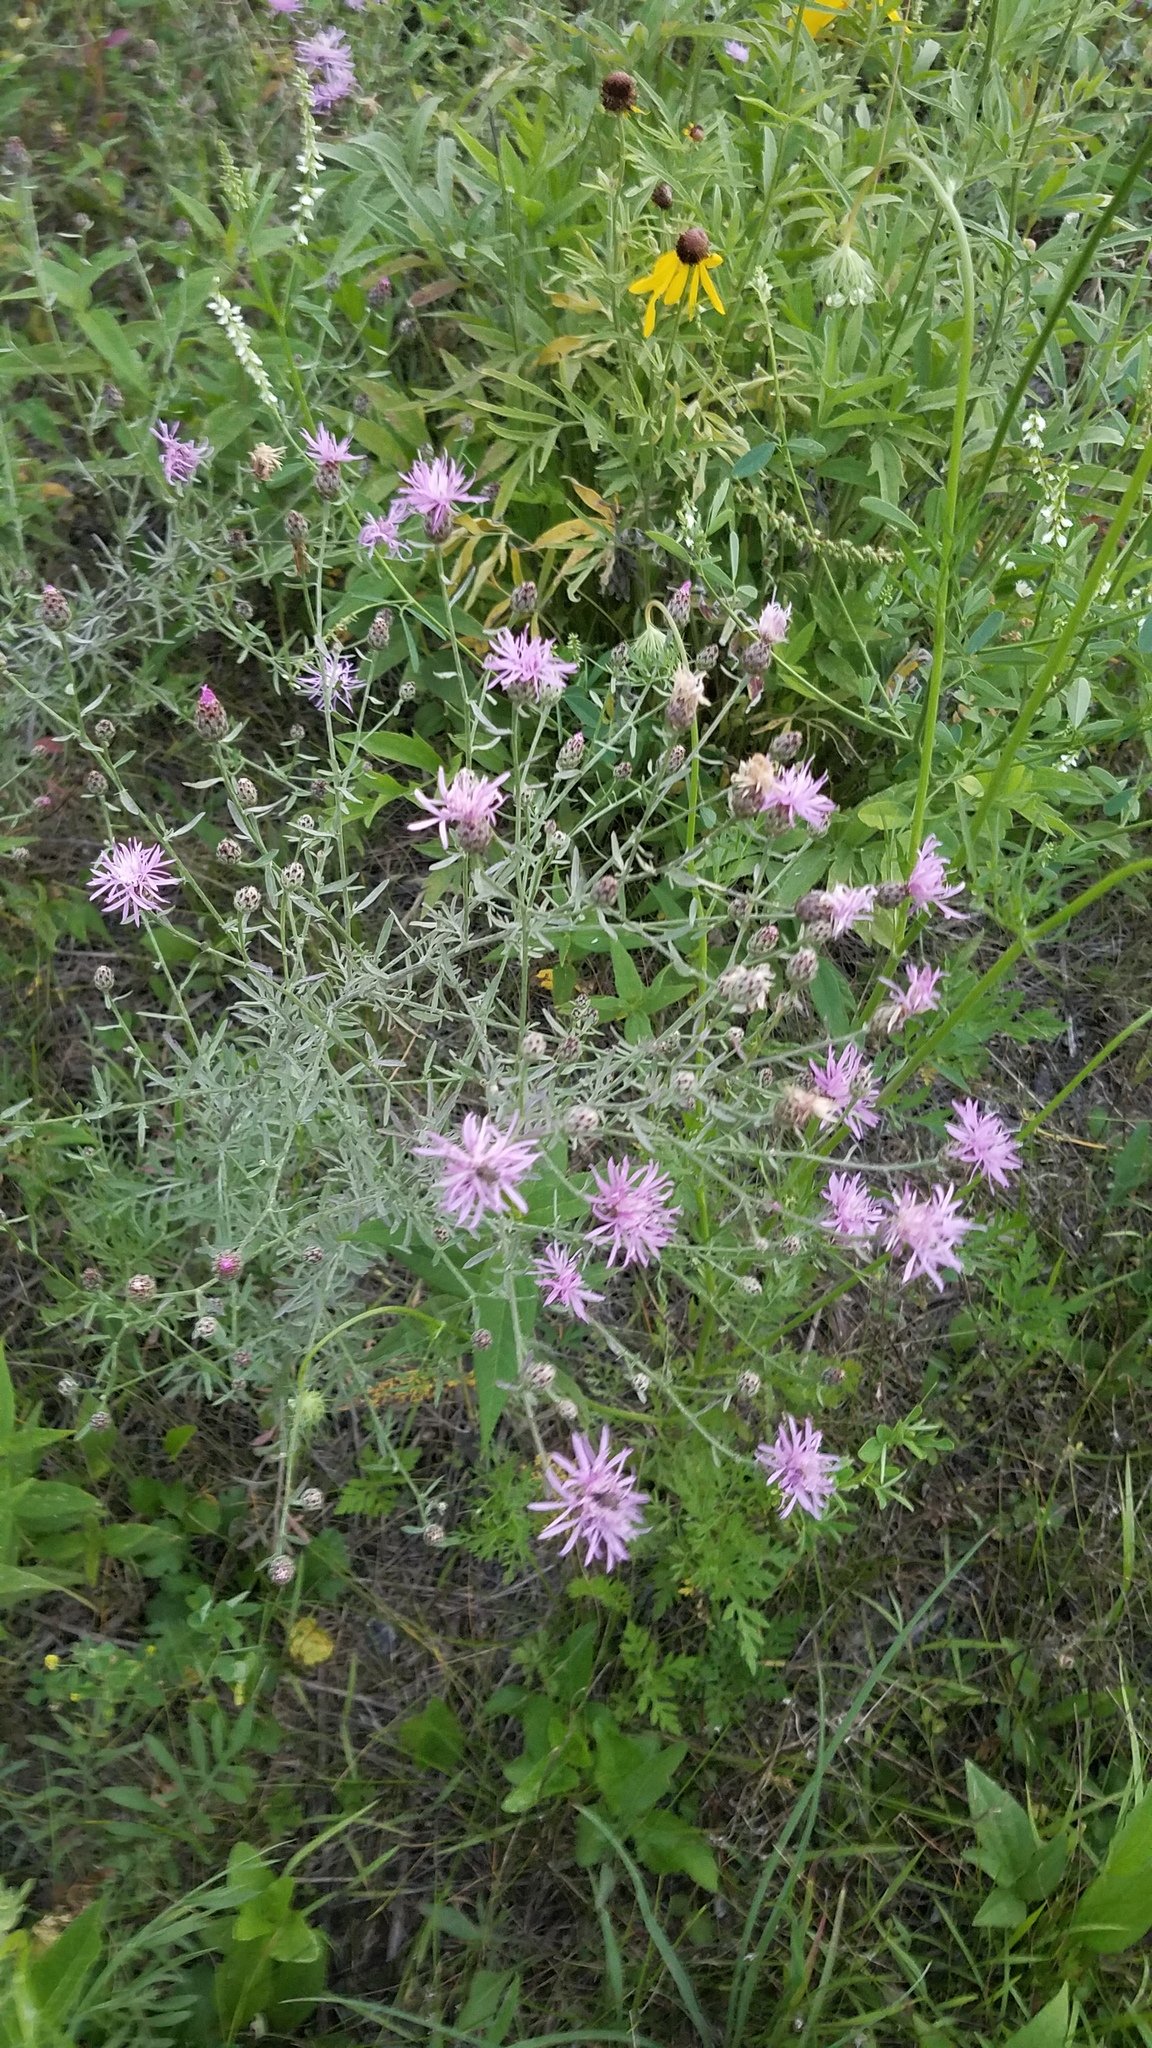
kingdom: Plantae
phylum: Tracheophyta
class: Magnoliopsida
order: Asterales
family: Asteraceae
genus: Centaurea
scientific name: Centaurea stoebe
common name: Spotted knapweed
